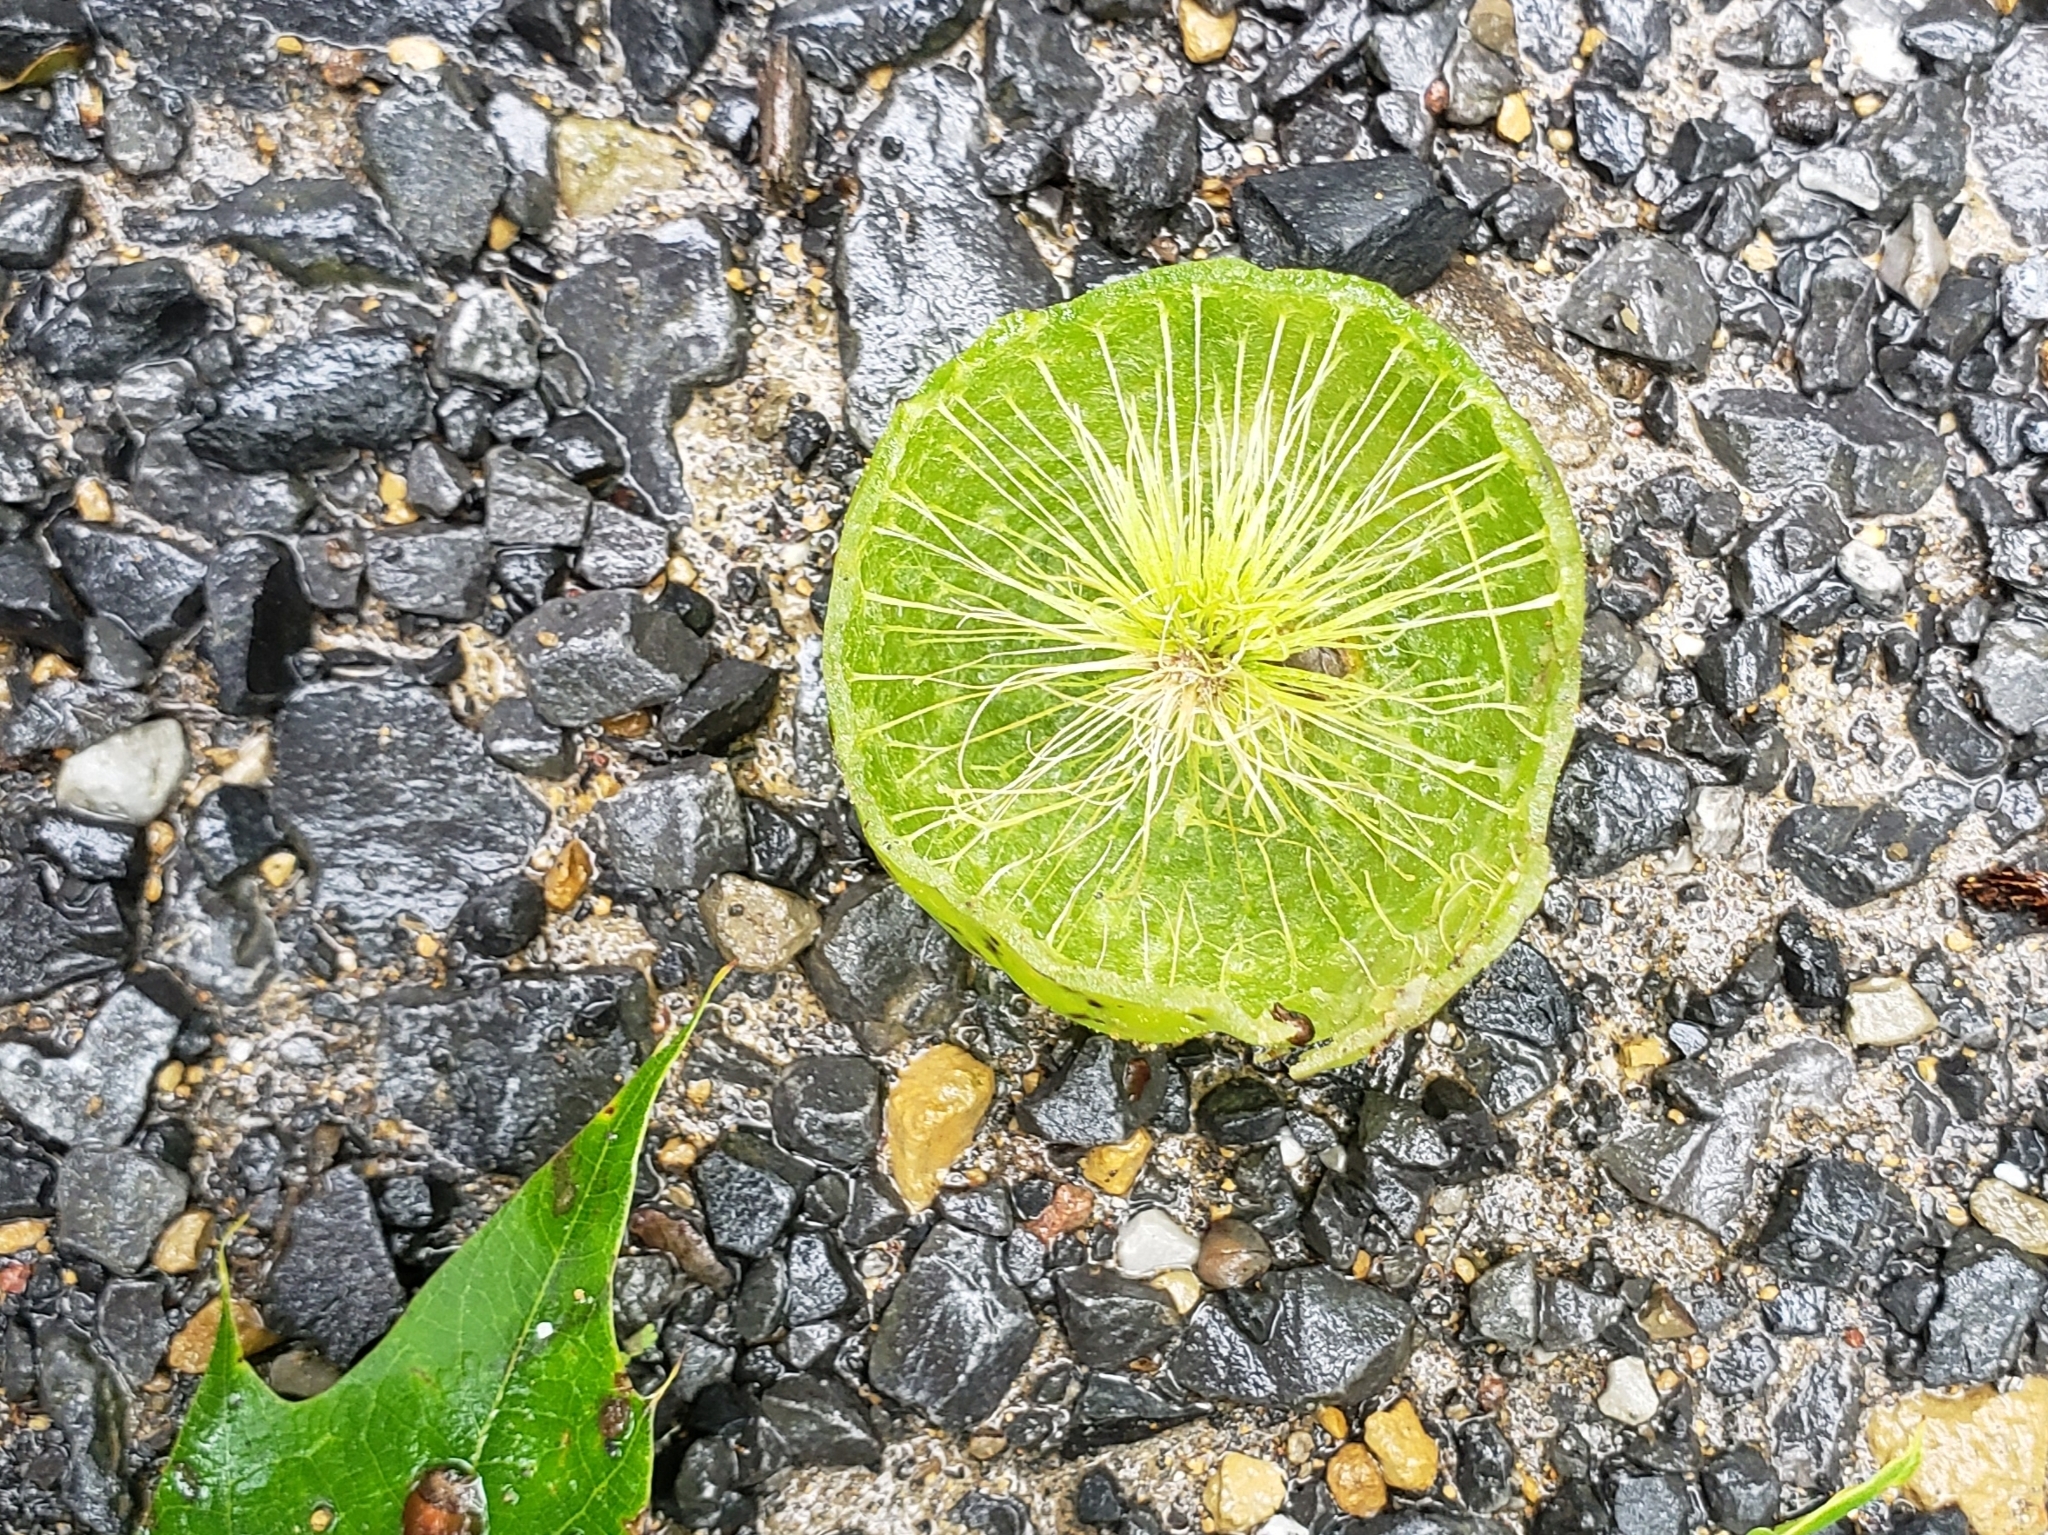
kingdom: Animalia
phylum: Arthropoda
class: Insecta
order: Hymenoptera
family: Cynipidae
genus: Amphibolips
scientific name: Amphibolips
